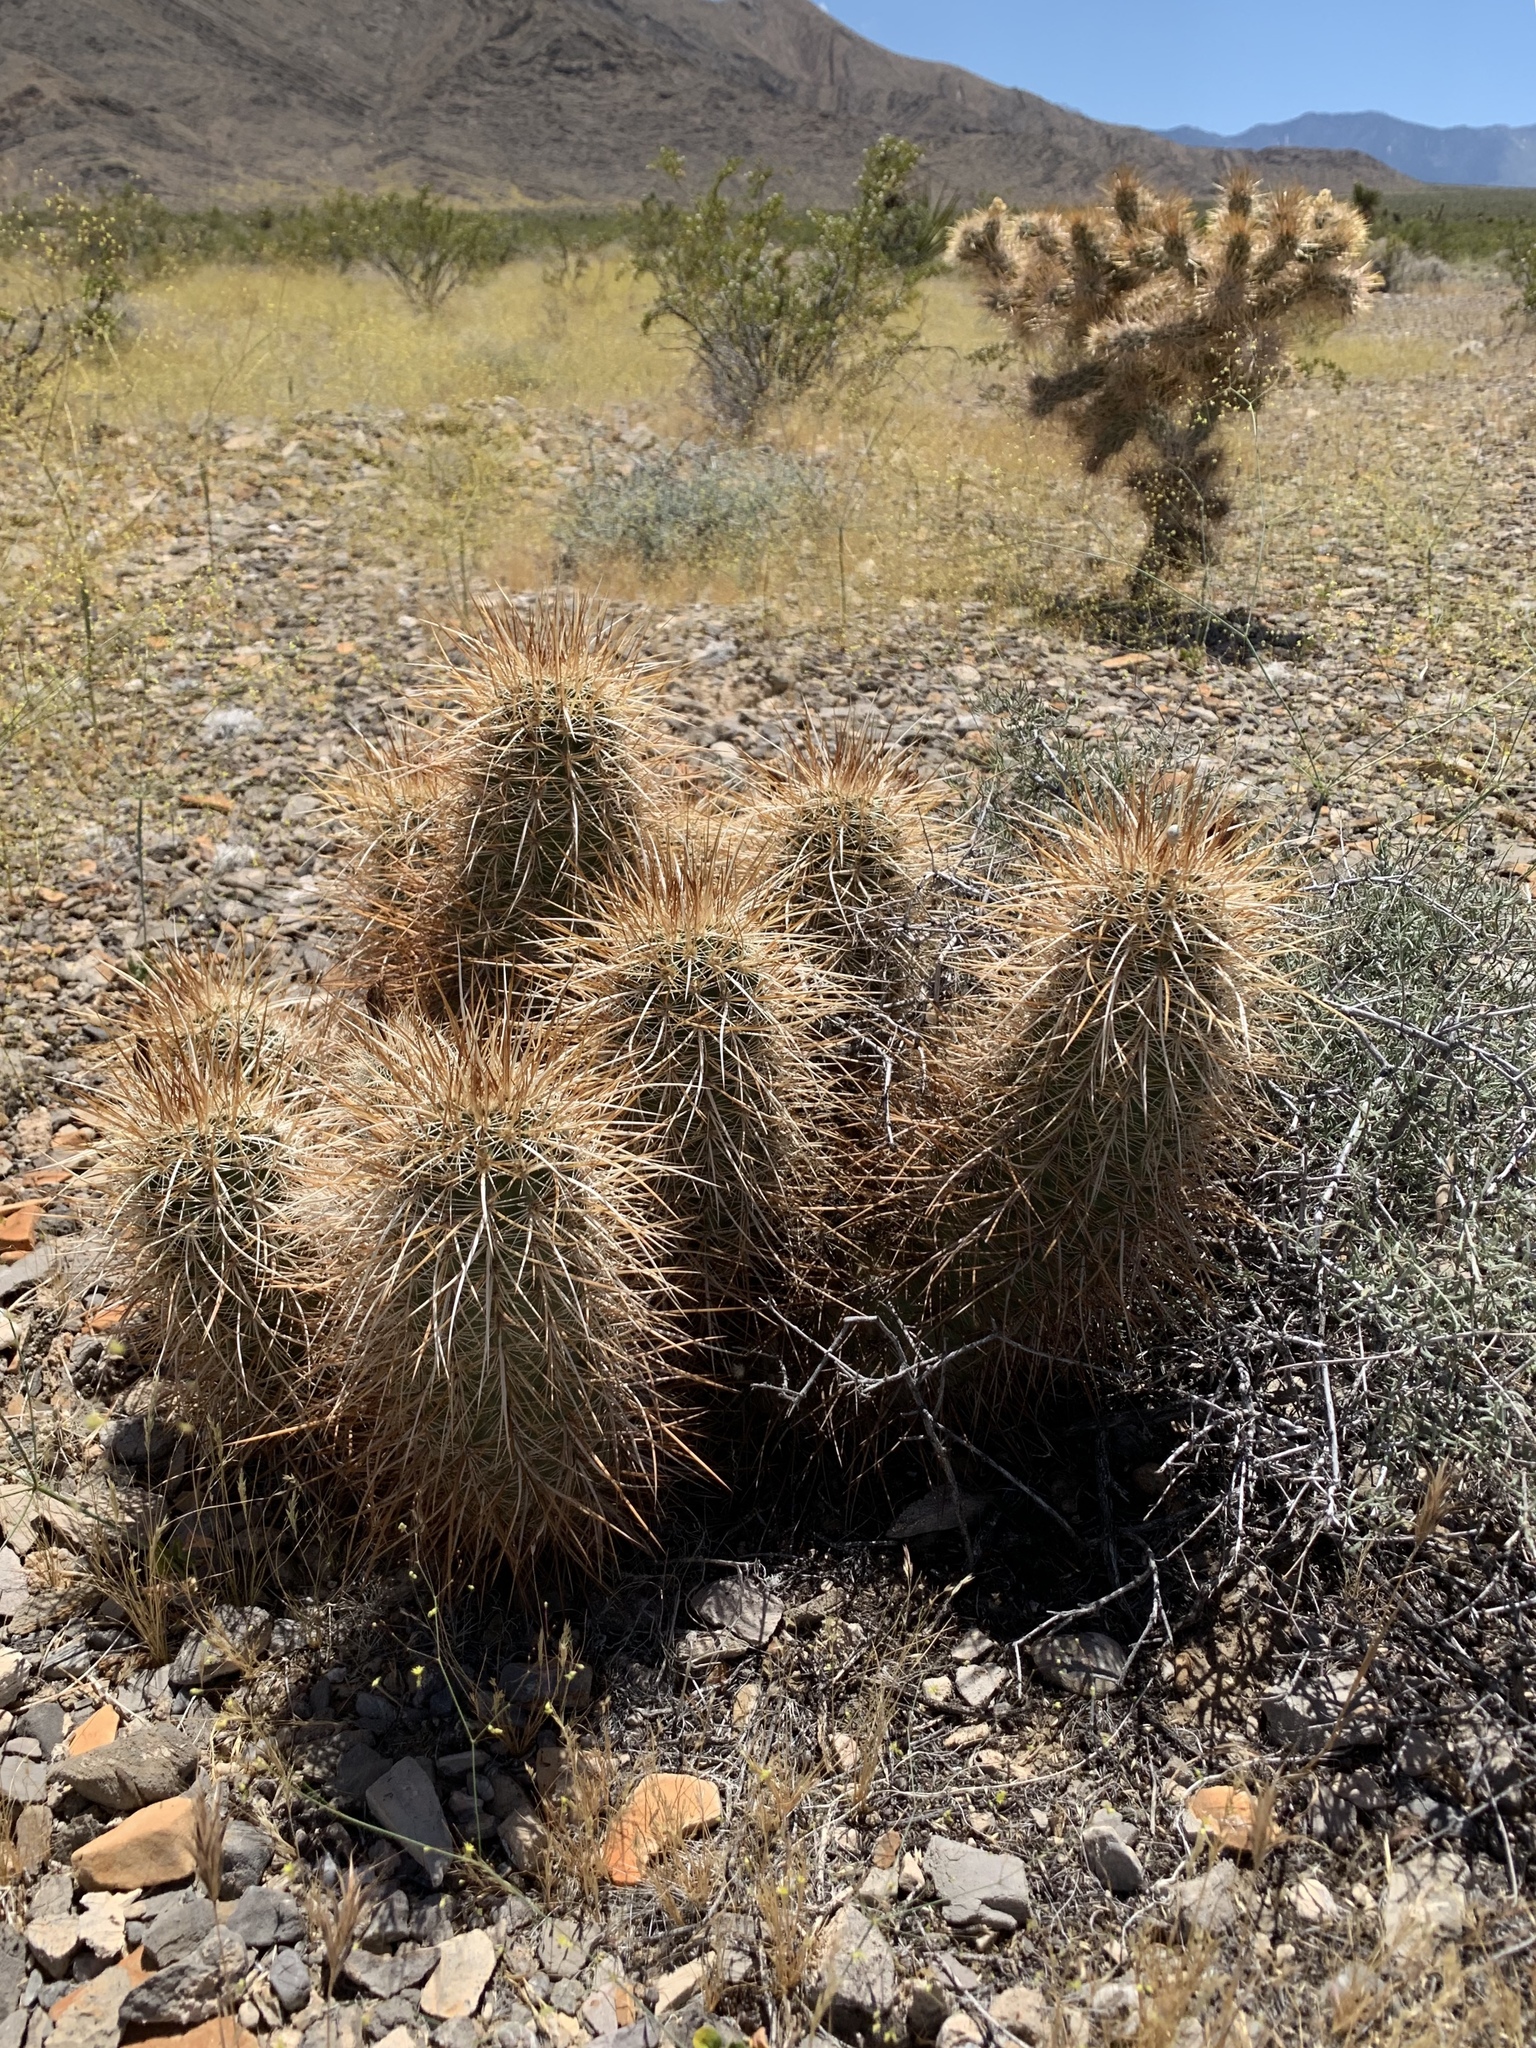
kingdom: Plantae
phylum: Tracheophyta
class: Magnoliopsida
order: Caryophyllales
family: Cactaceae
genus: Echinocereus
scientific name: Echinocereus engelmannii
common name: Engelmann's hedgehog cactus
